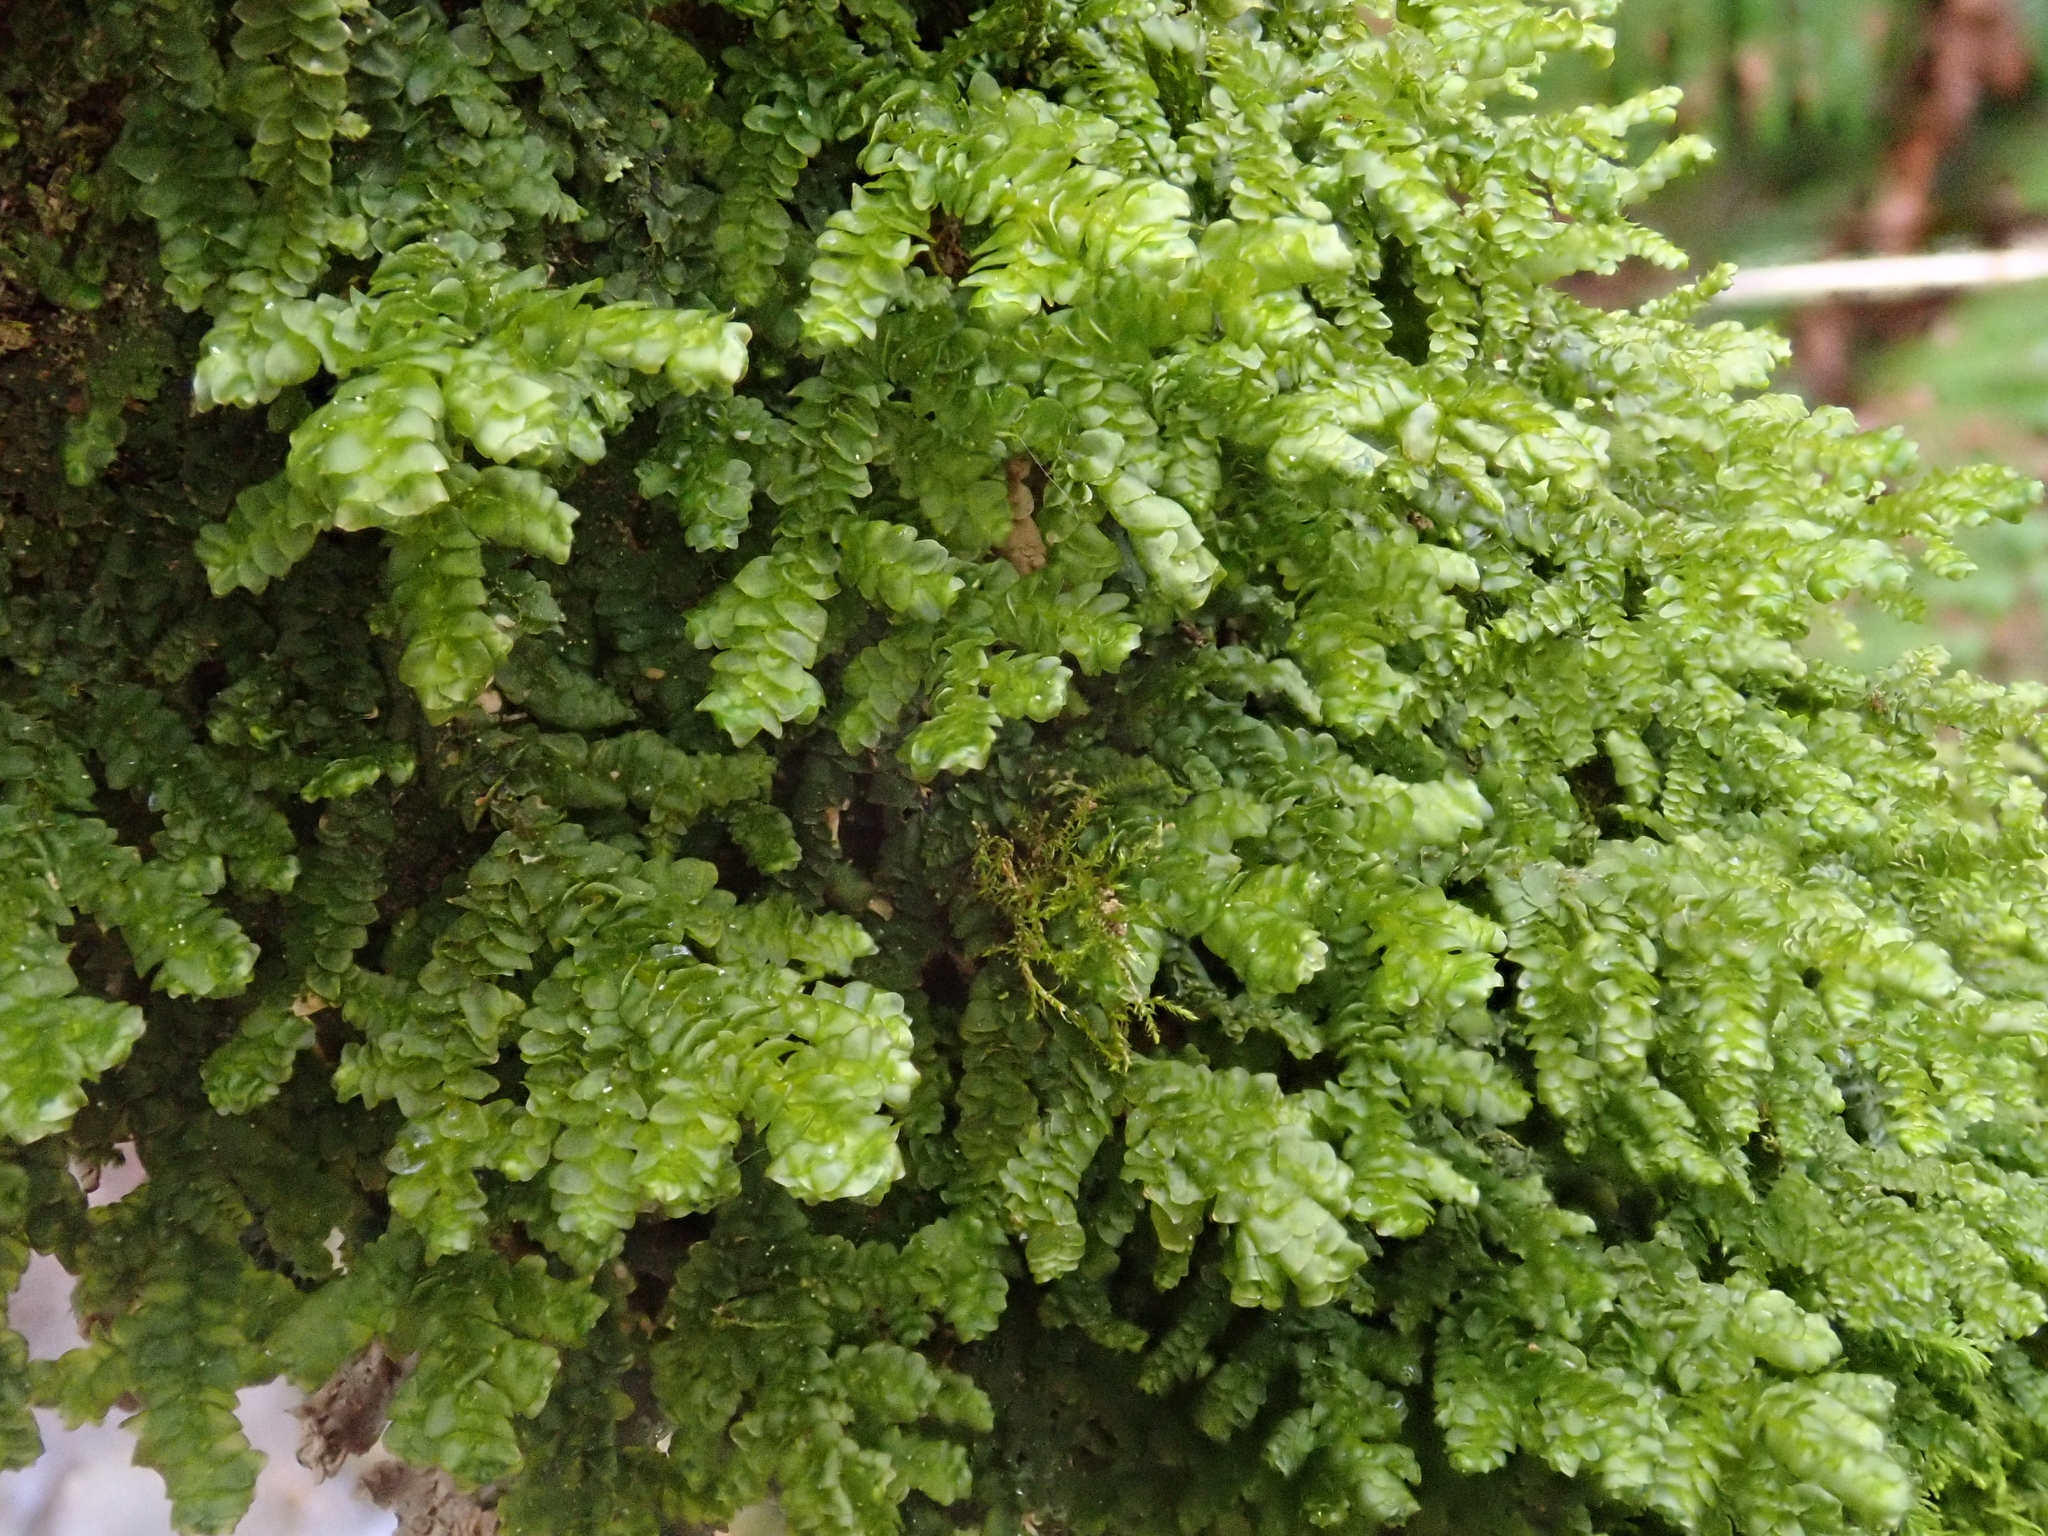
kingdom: Plantae
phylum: Marchantiophyta
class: Jungermanniopsida
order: Porellales
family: Porellaceae
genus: Porella
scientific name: Porella platyphylla
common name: Wall scalewort
